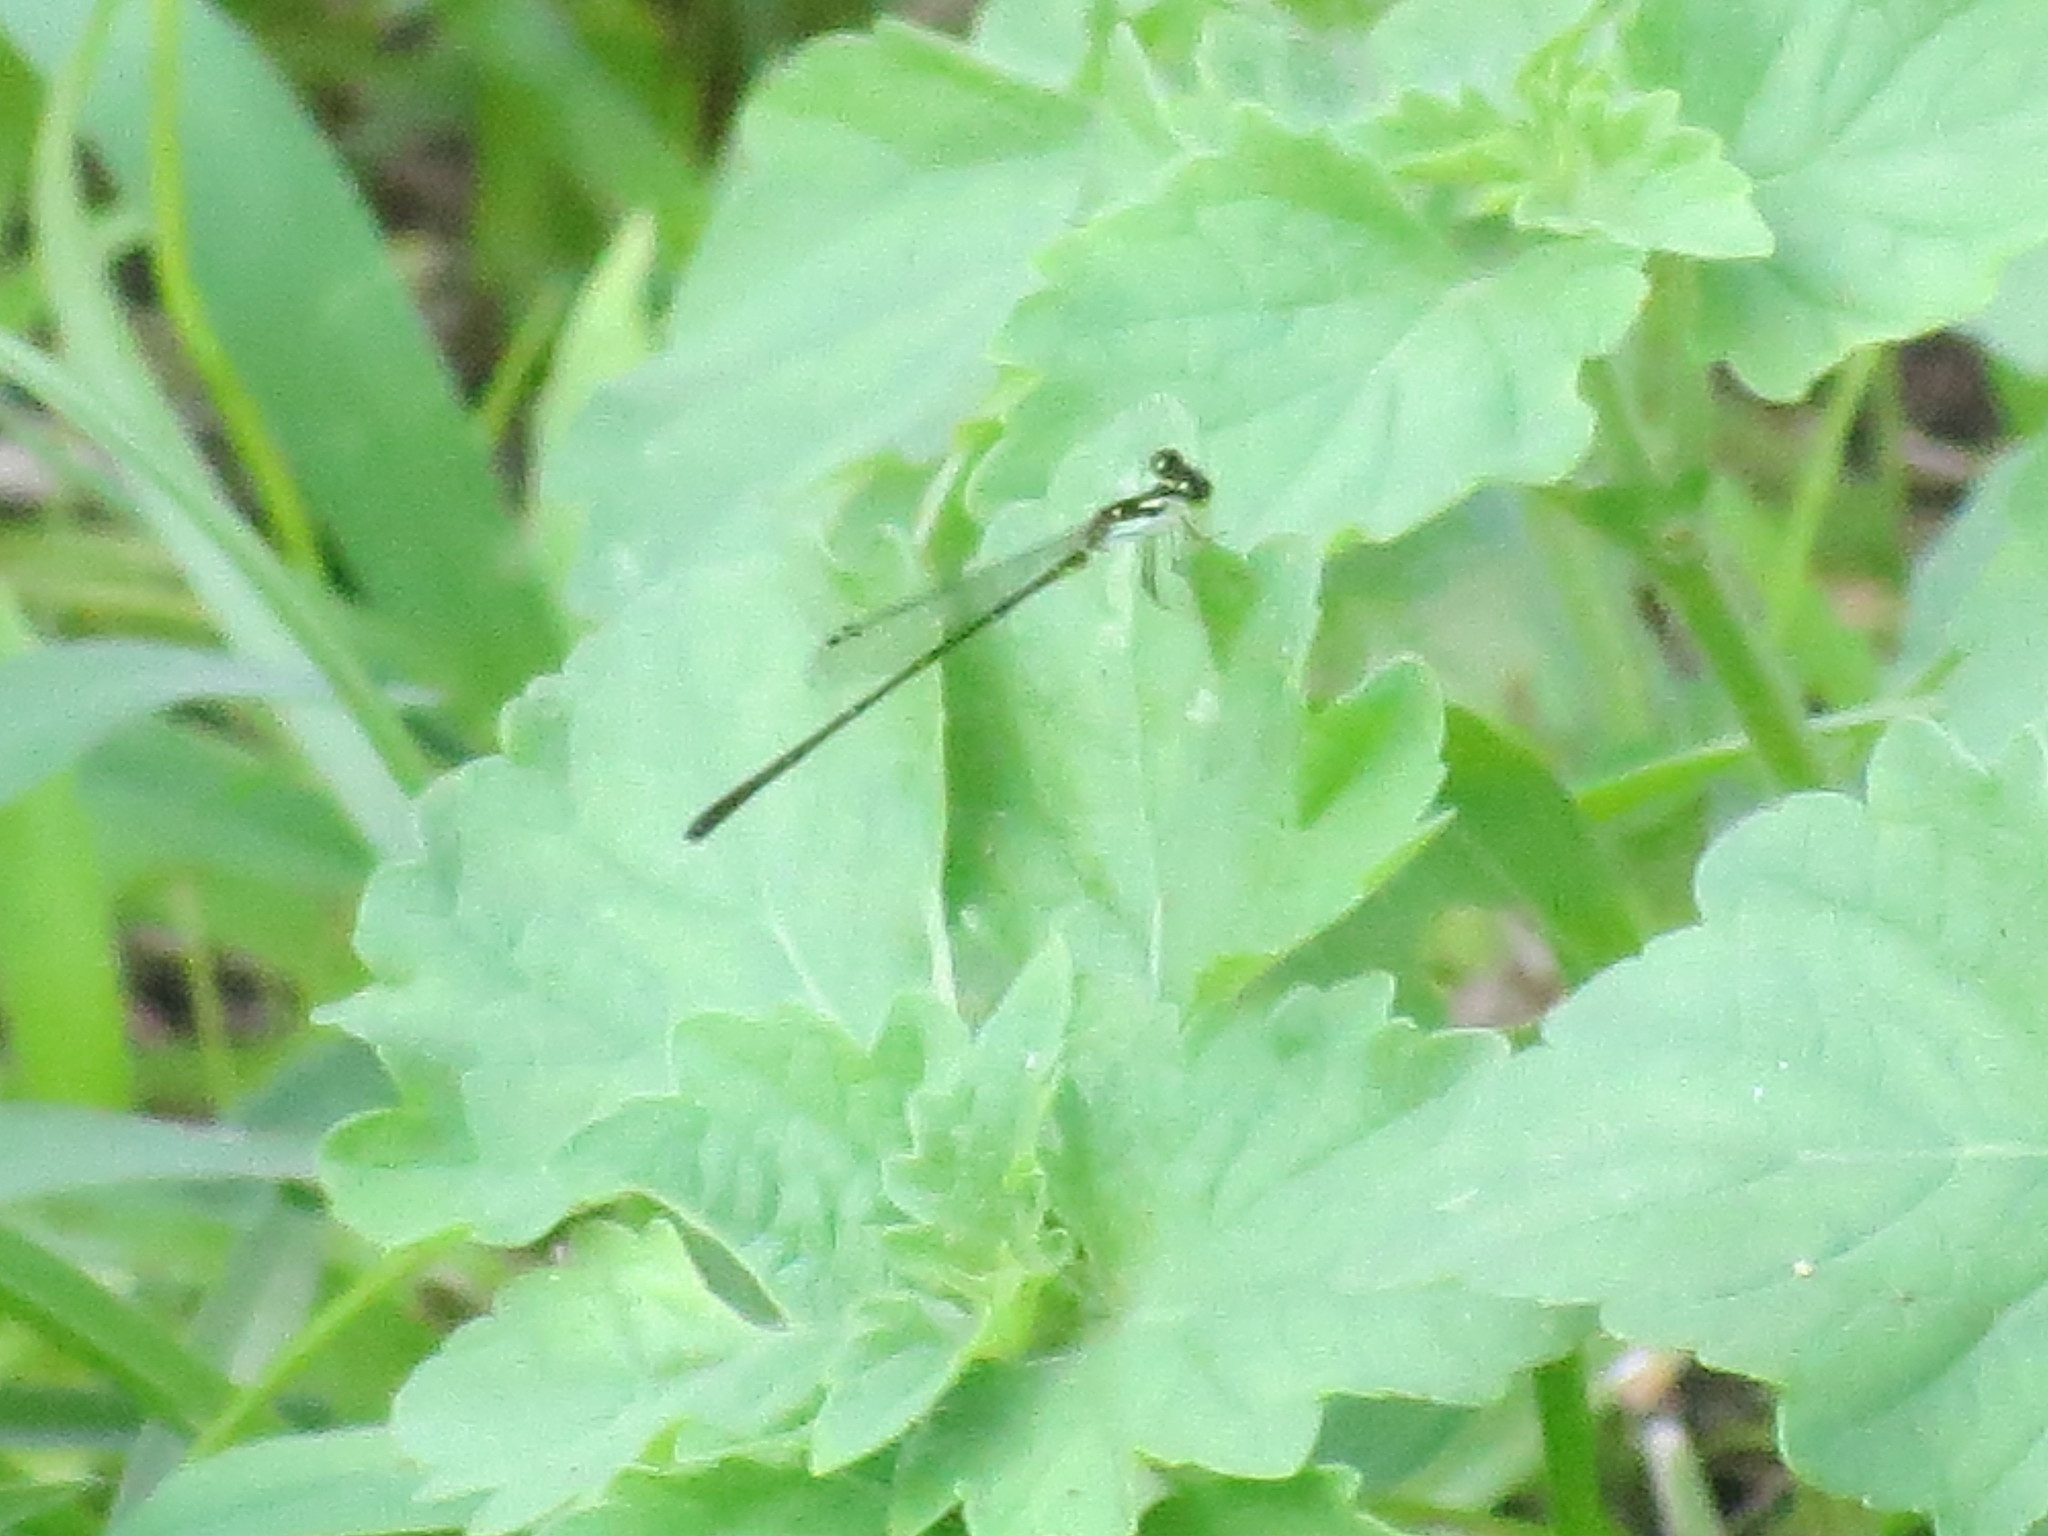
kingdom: Animalia
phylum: Arthropoda
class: Insecta
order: Odonata
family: Coenagrionidae
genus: Ischnura
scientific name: Ischnura posita
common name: Fragile forktail
